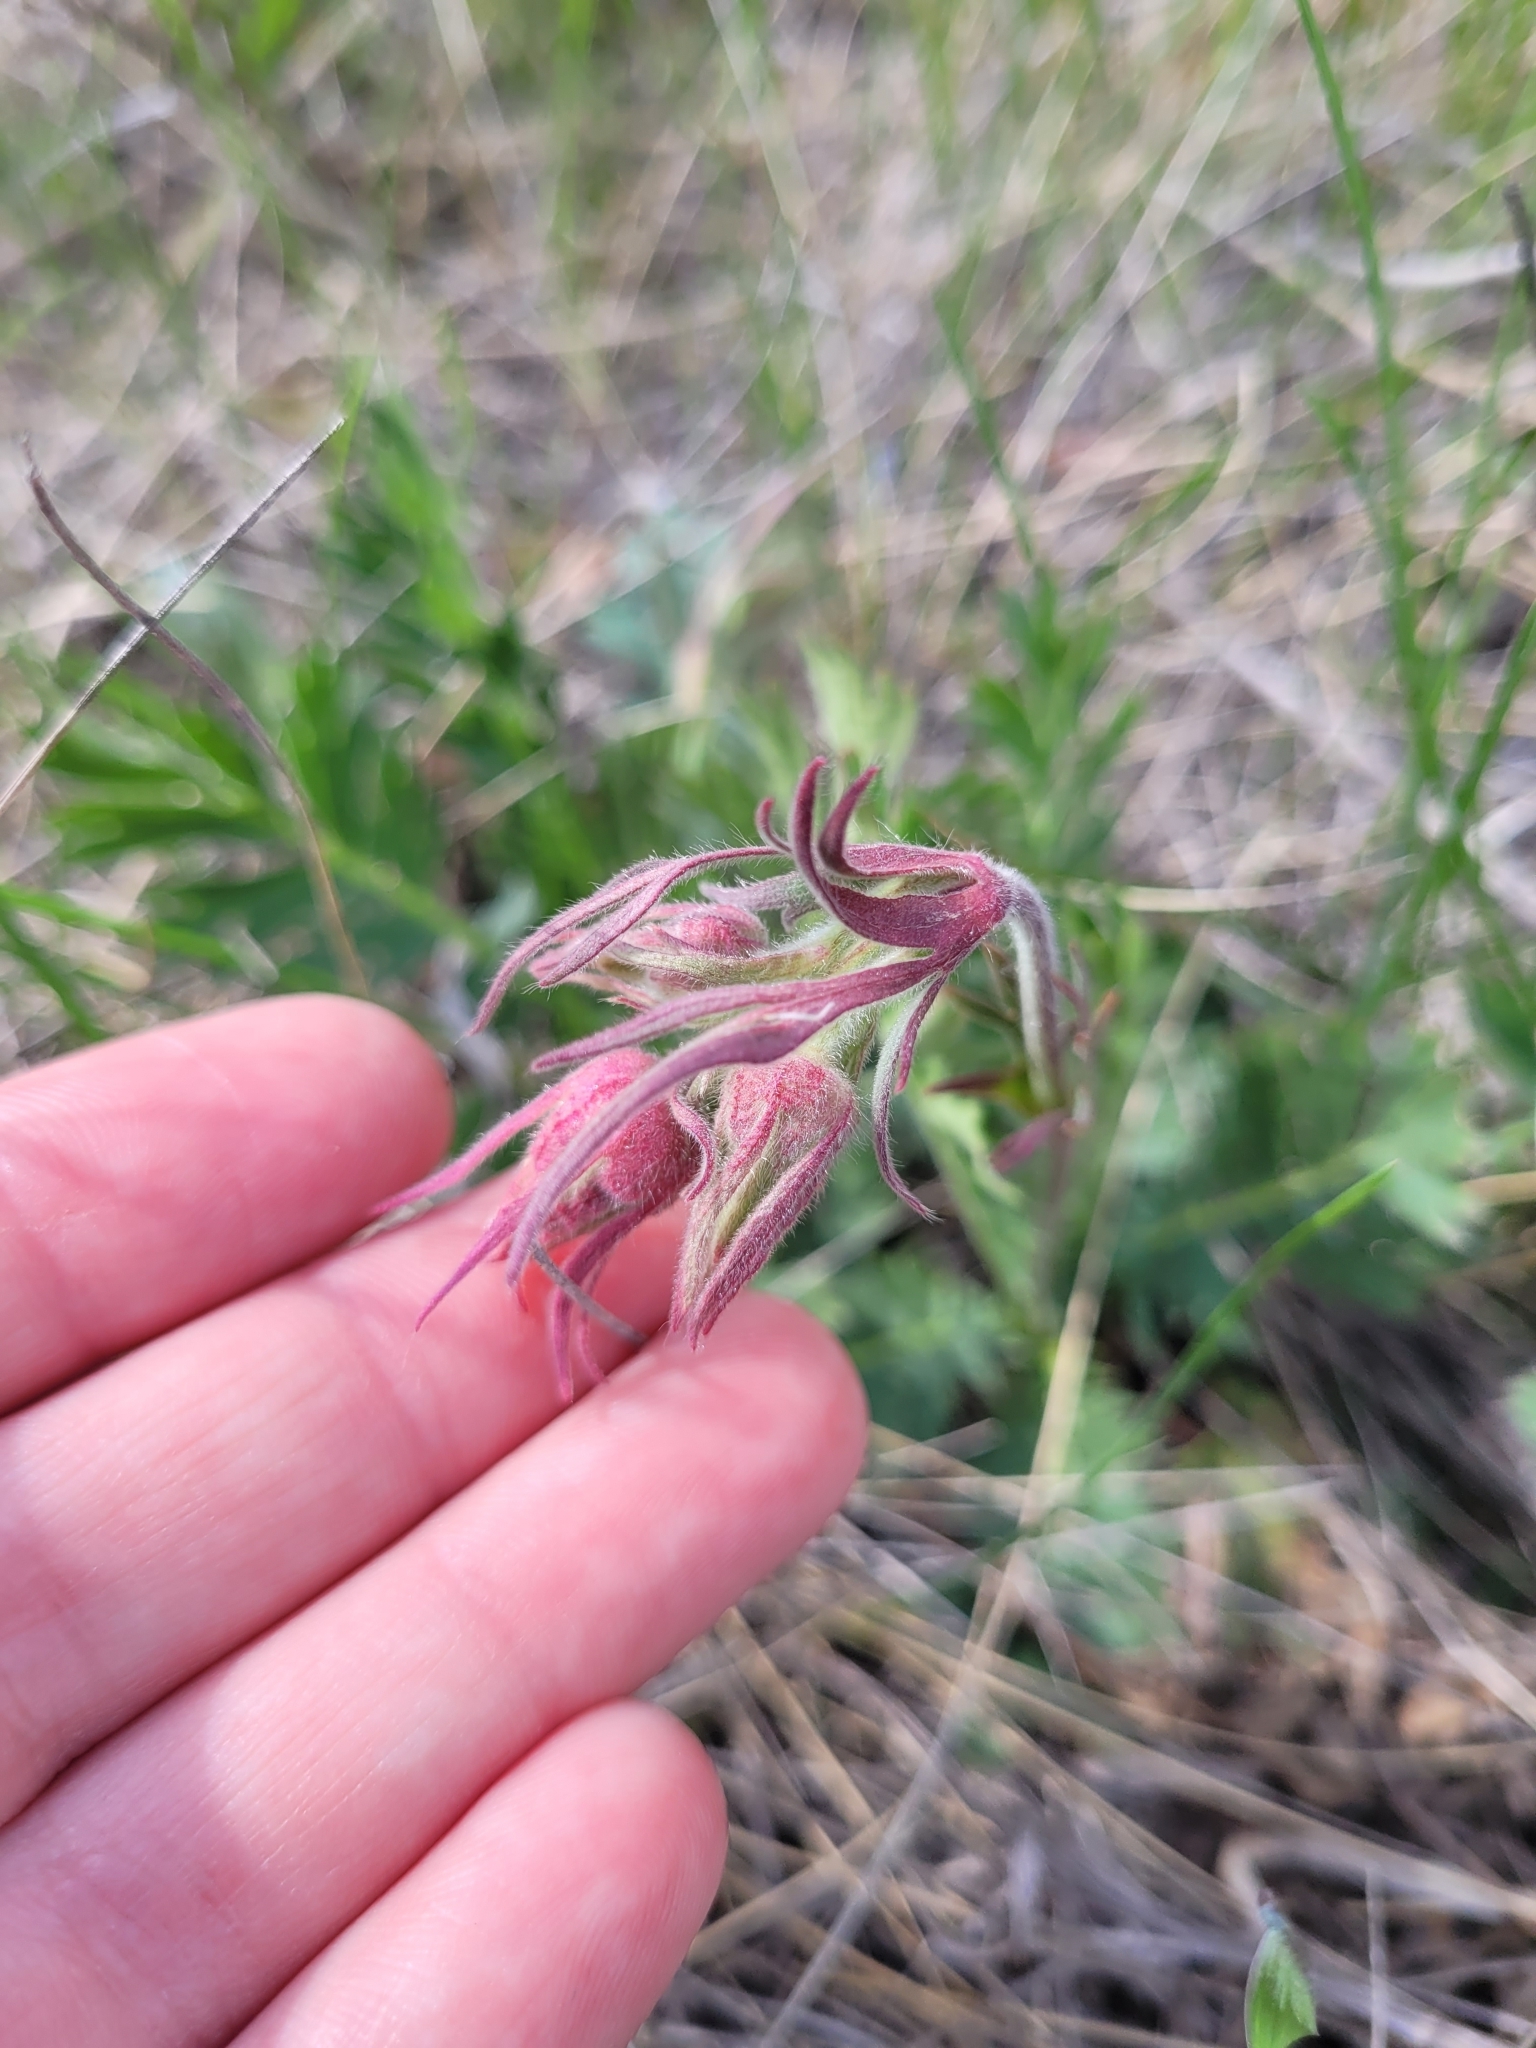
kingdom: Plantae
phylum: Tracheophyta
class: Magnoliopsida
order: Rosales
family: Rosaceae
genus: Geum
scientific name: Geum triflorum
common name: Old man's whiskers
